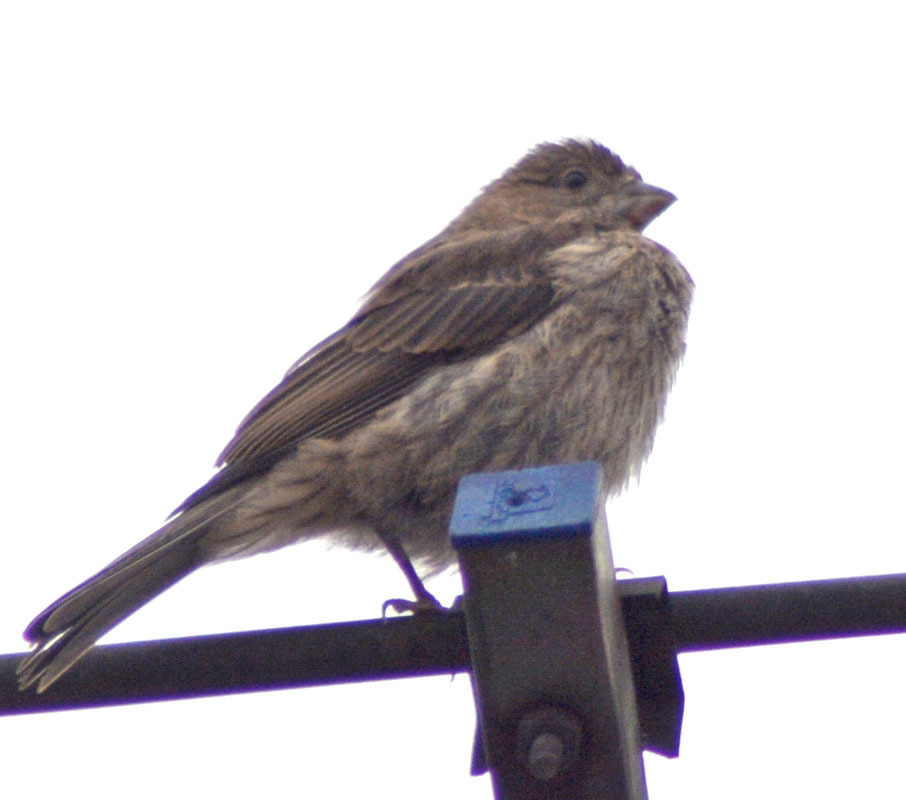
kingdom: Animalia
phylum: Chordata
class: Aves
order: Passeriformes
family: Fringillidae
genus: Haemorhous
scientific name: Haemorhous mexicanus
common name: House finch
